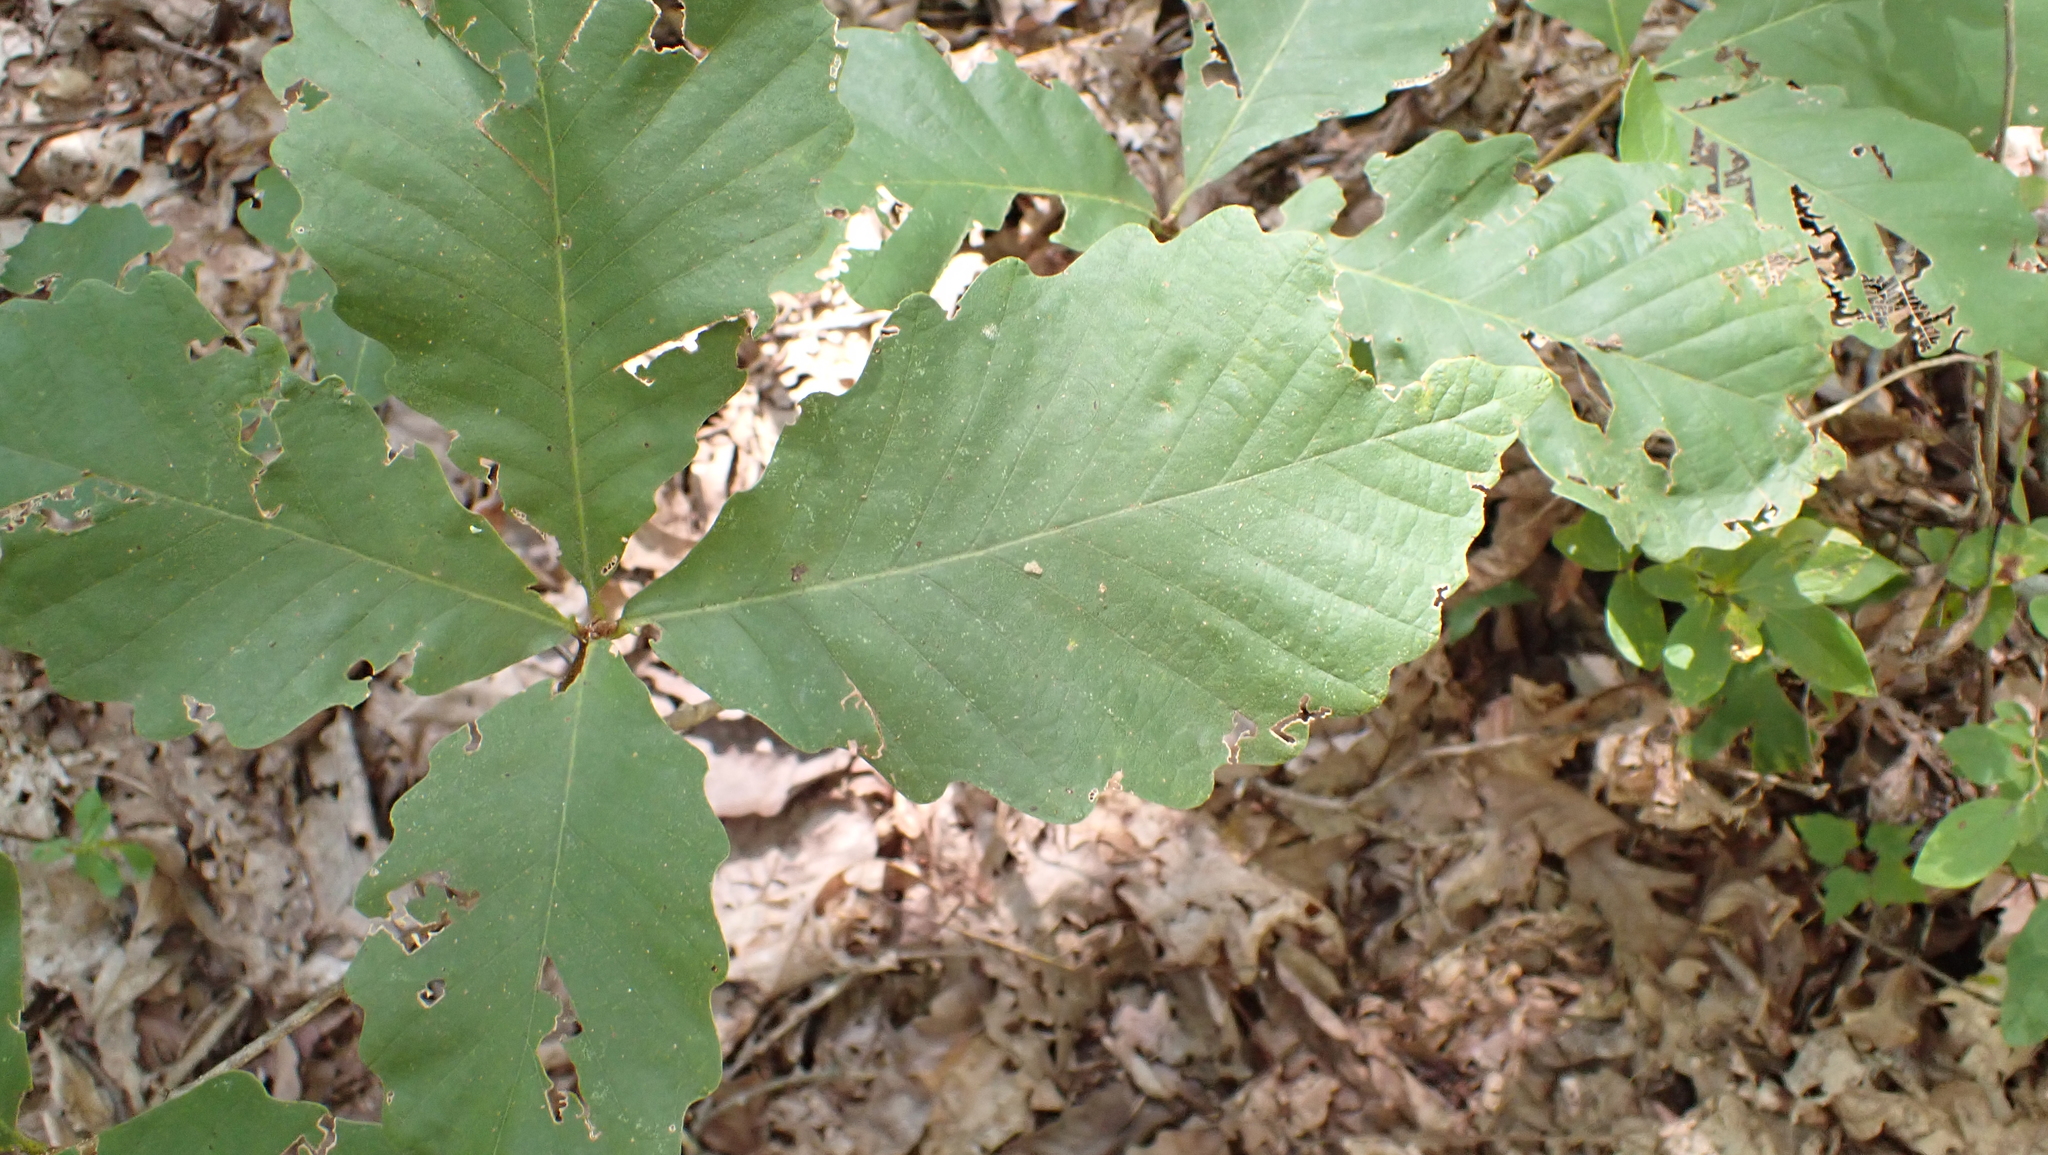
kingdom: Plantae
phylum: Tracheophyta
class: Magnoliopsida
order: Fagales
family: Fagaceae
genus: Quercus
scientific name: Quercus montana
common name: Chestnut oak
